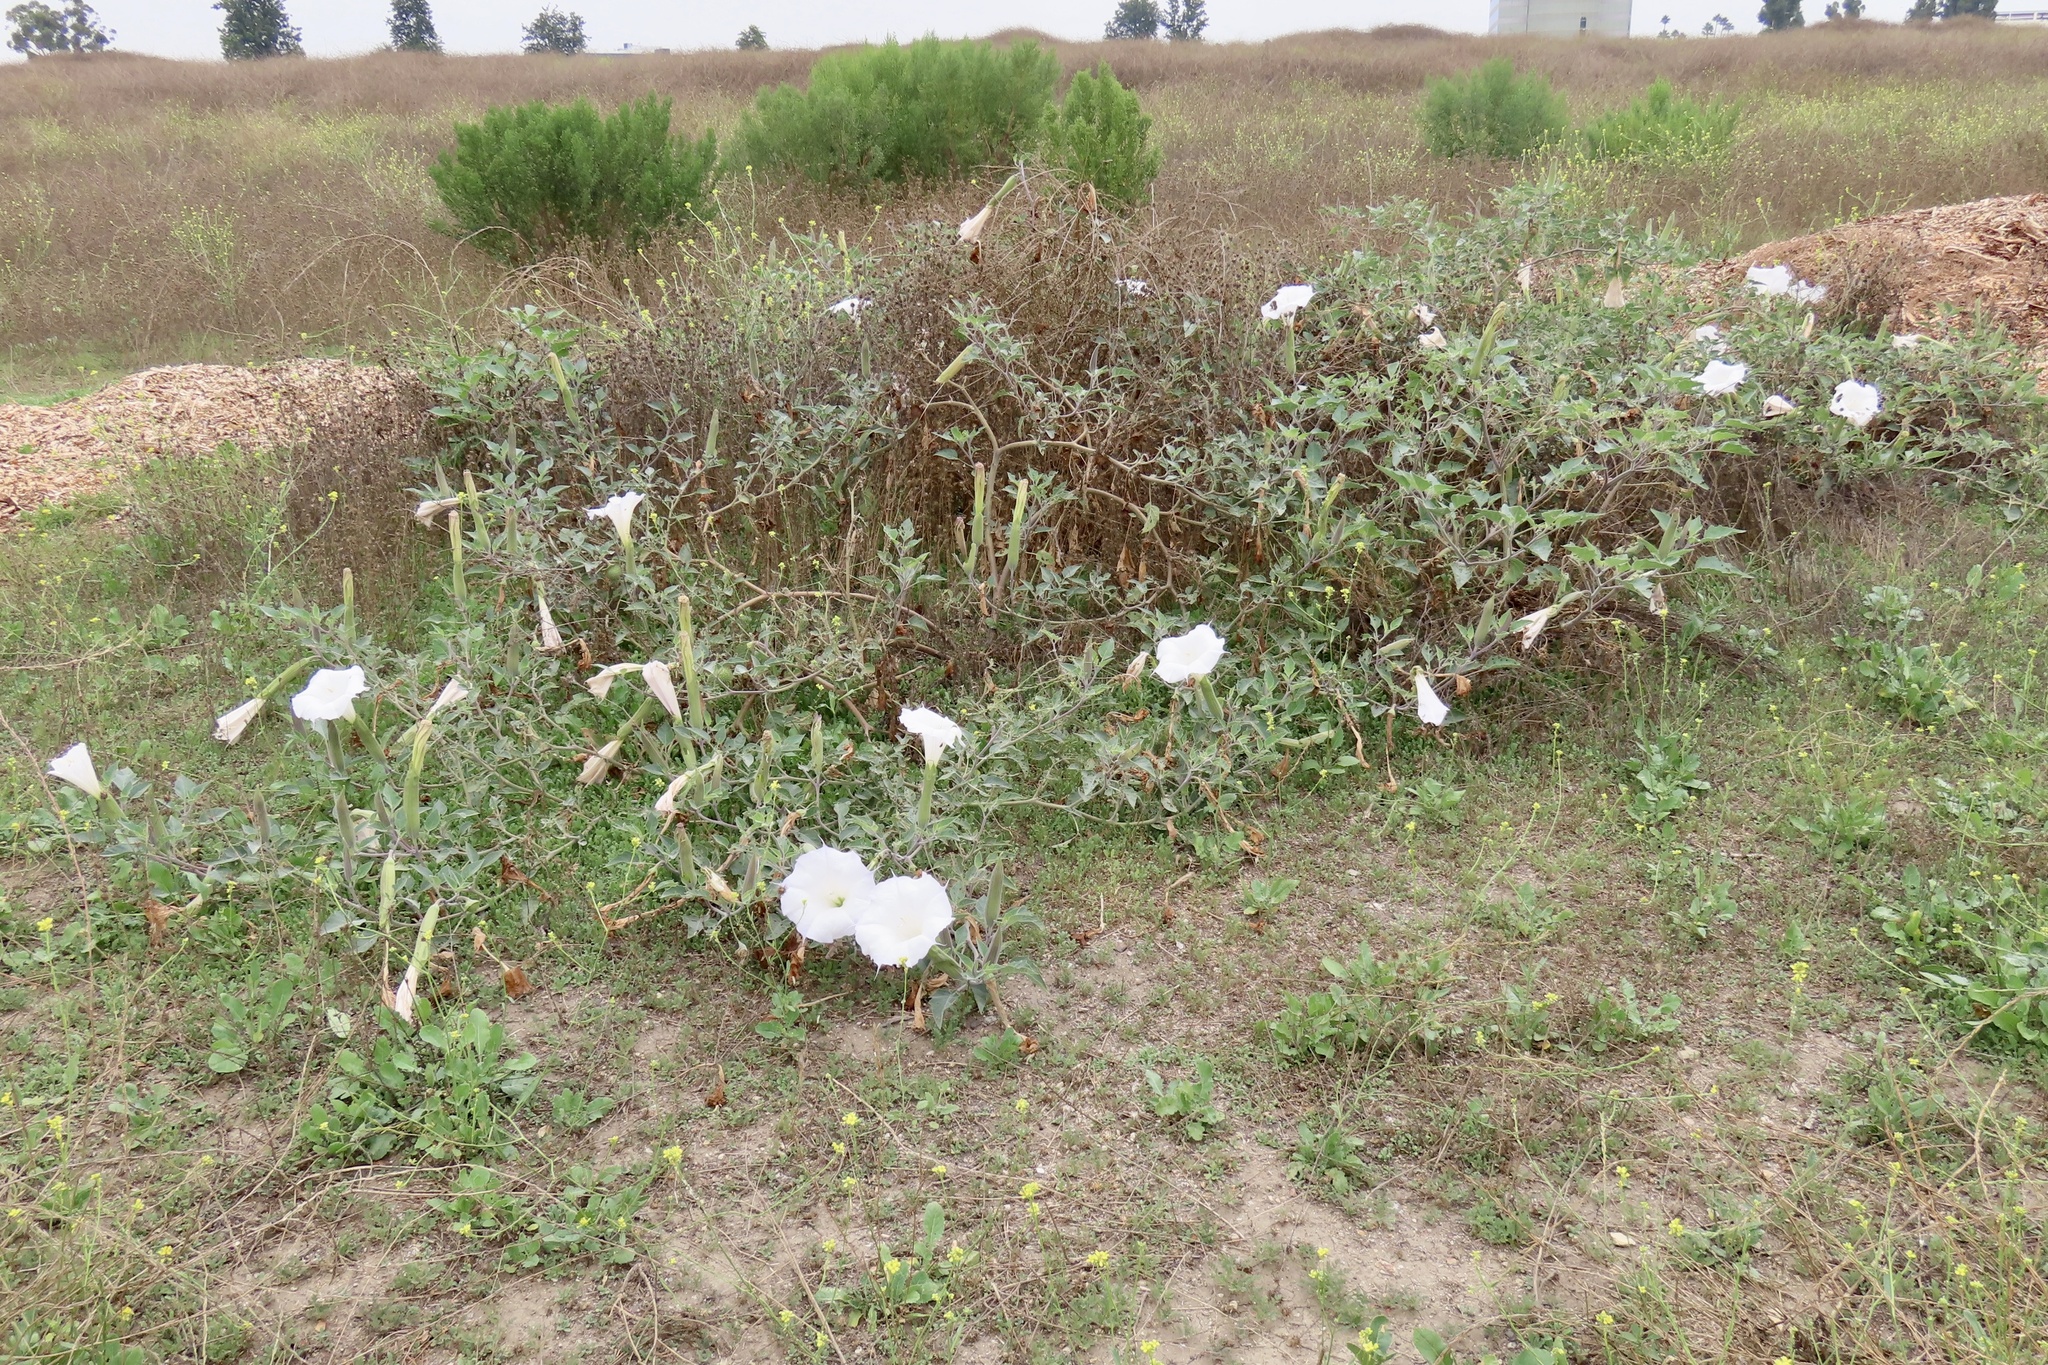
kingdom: Plantae
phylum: Tracheophyta
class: Magnoliopsida
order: Solanales
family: Solanaceae
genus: Datura
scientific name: Datura wrightii
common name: Sacred thorn-apple
